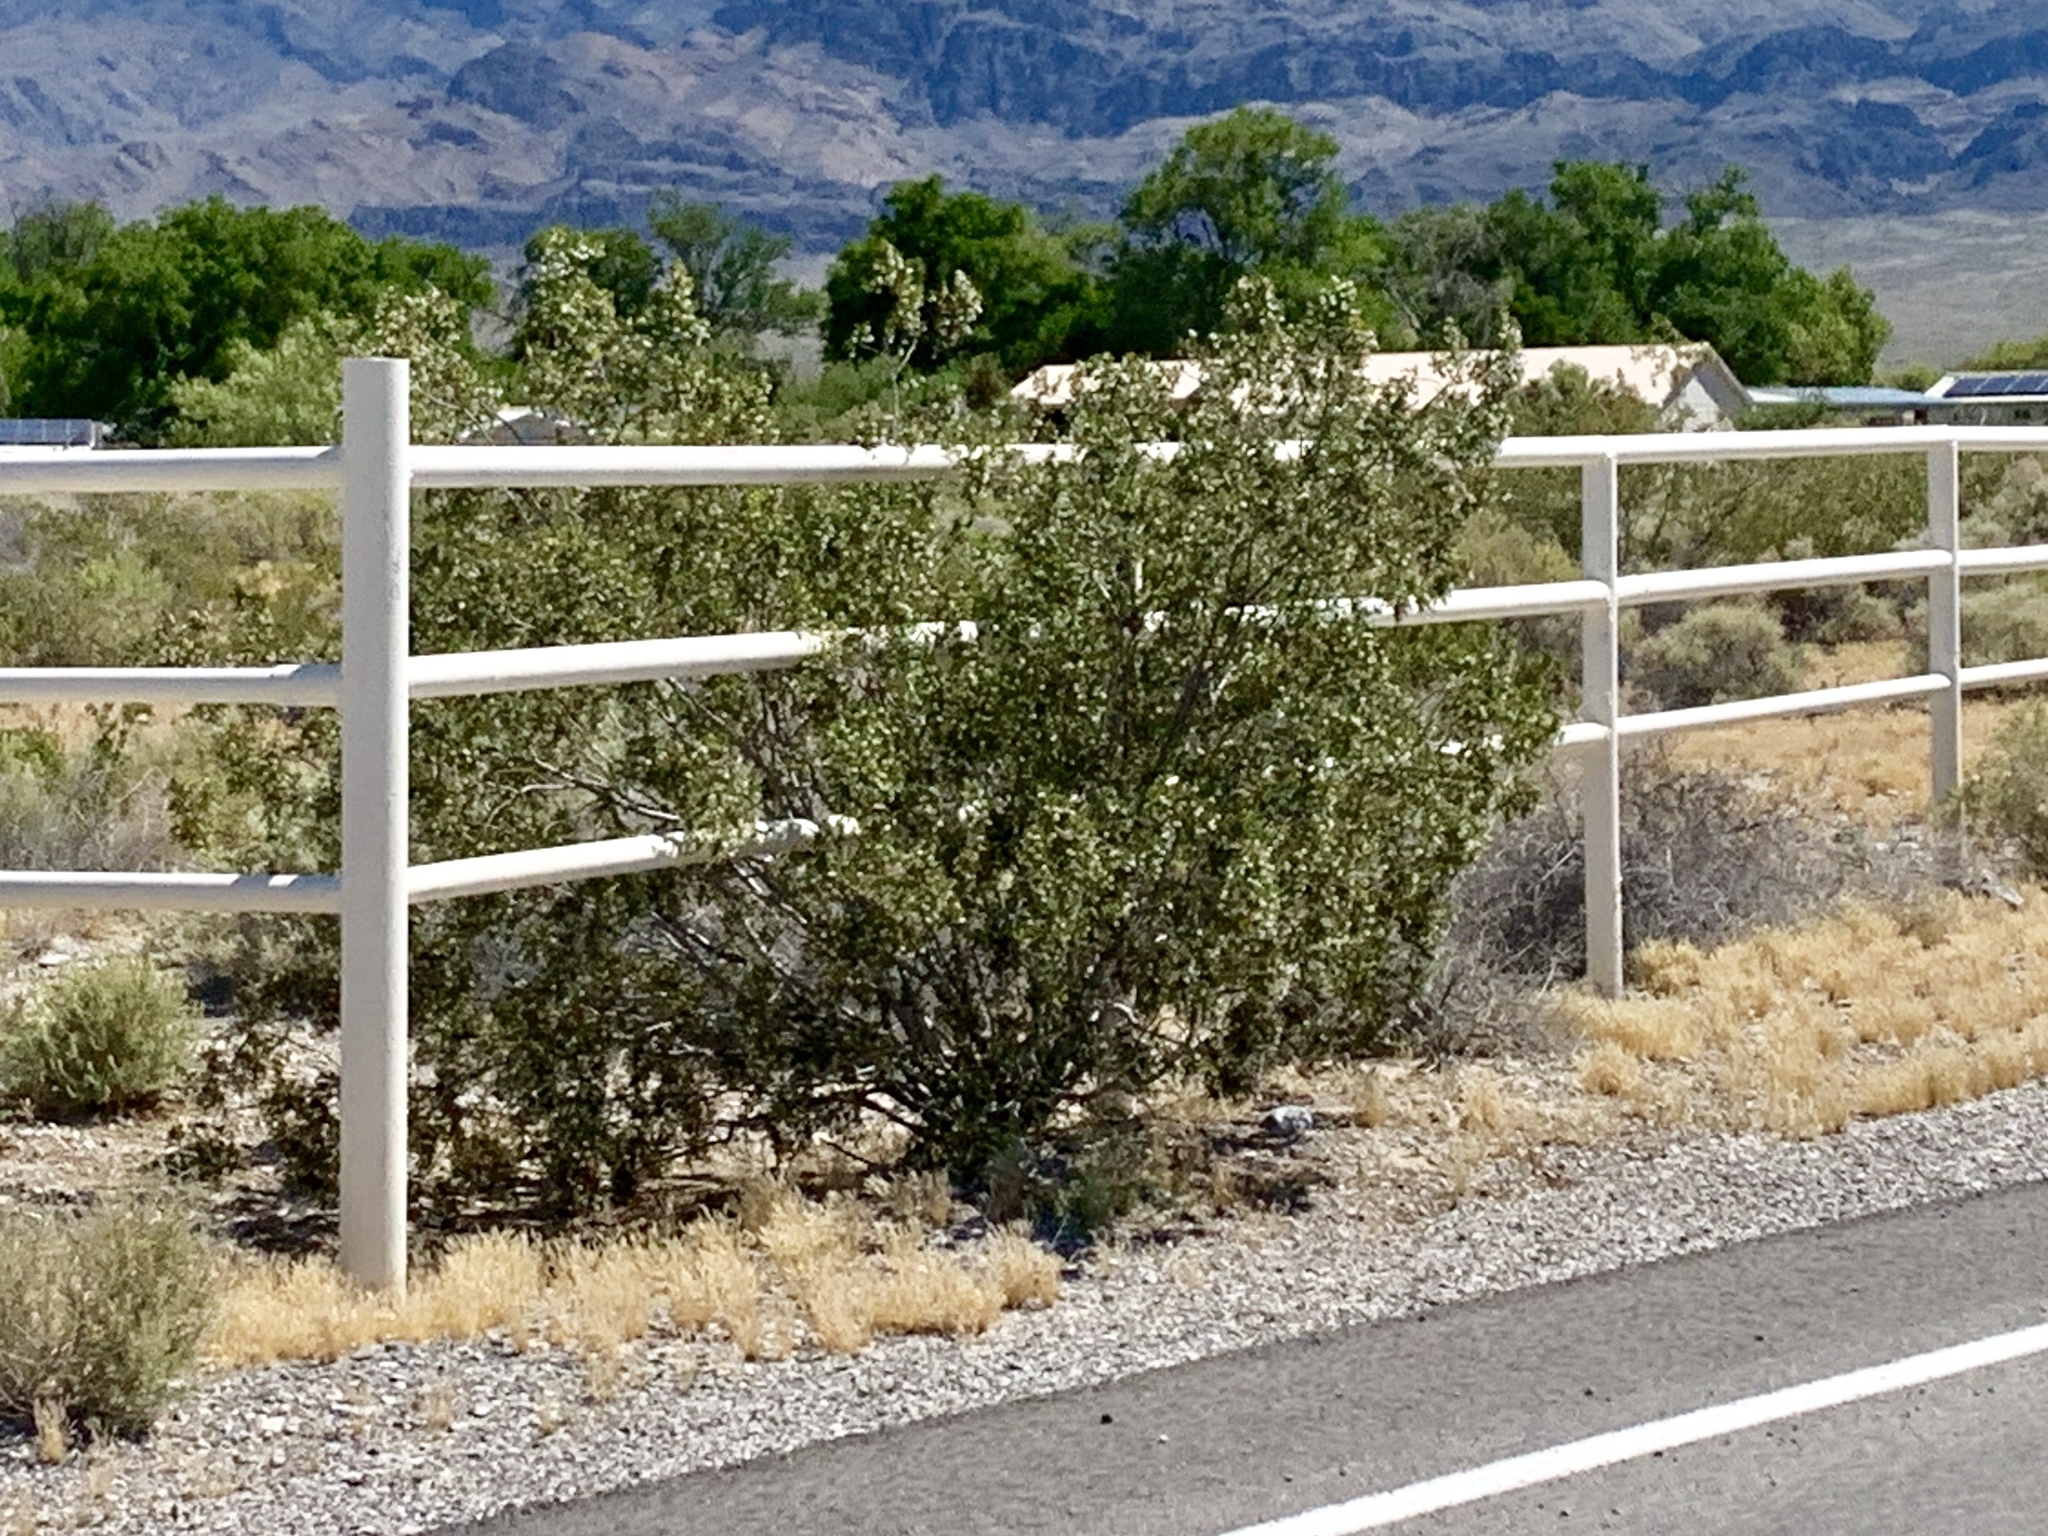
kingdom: Plantae
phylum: Tracheophyta
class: Magnoliopsida
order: Zygophyllales
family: Zygophyllaceae
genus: Larrea
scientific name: Larrea tridentata
